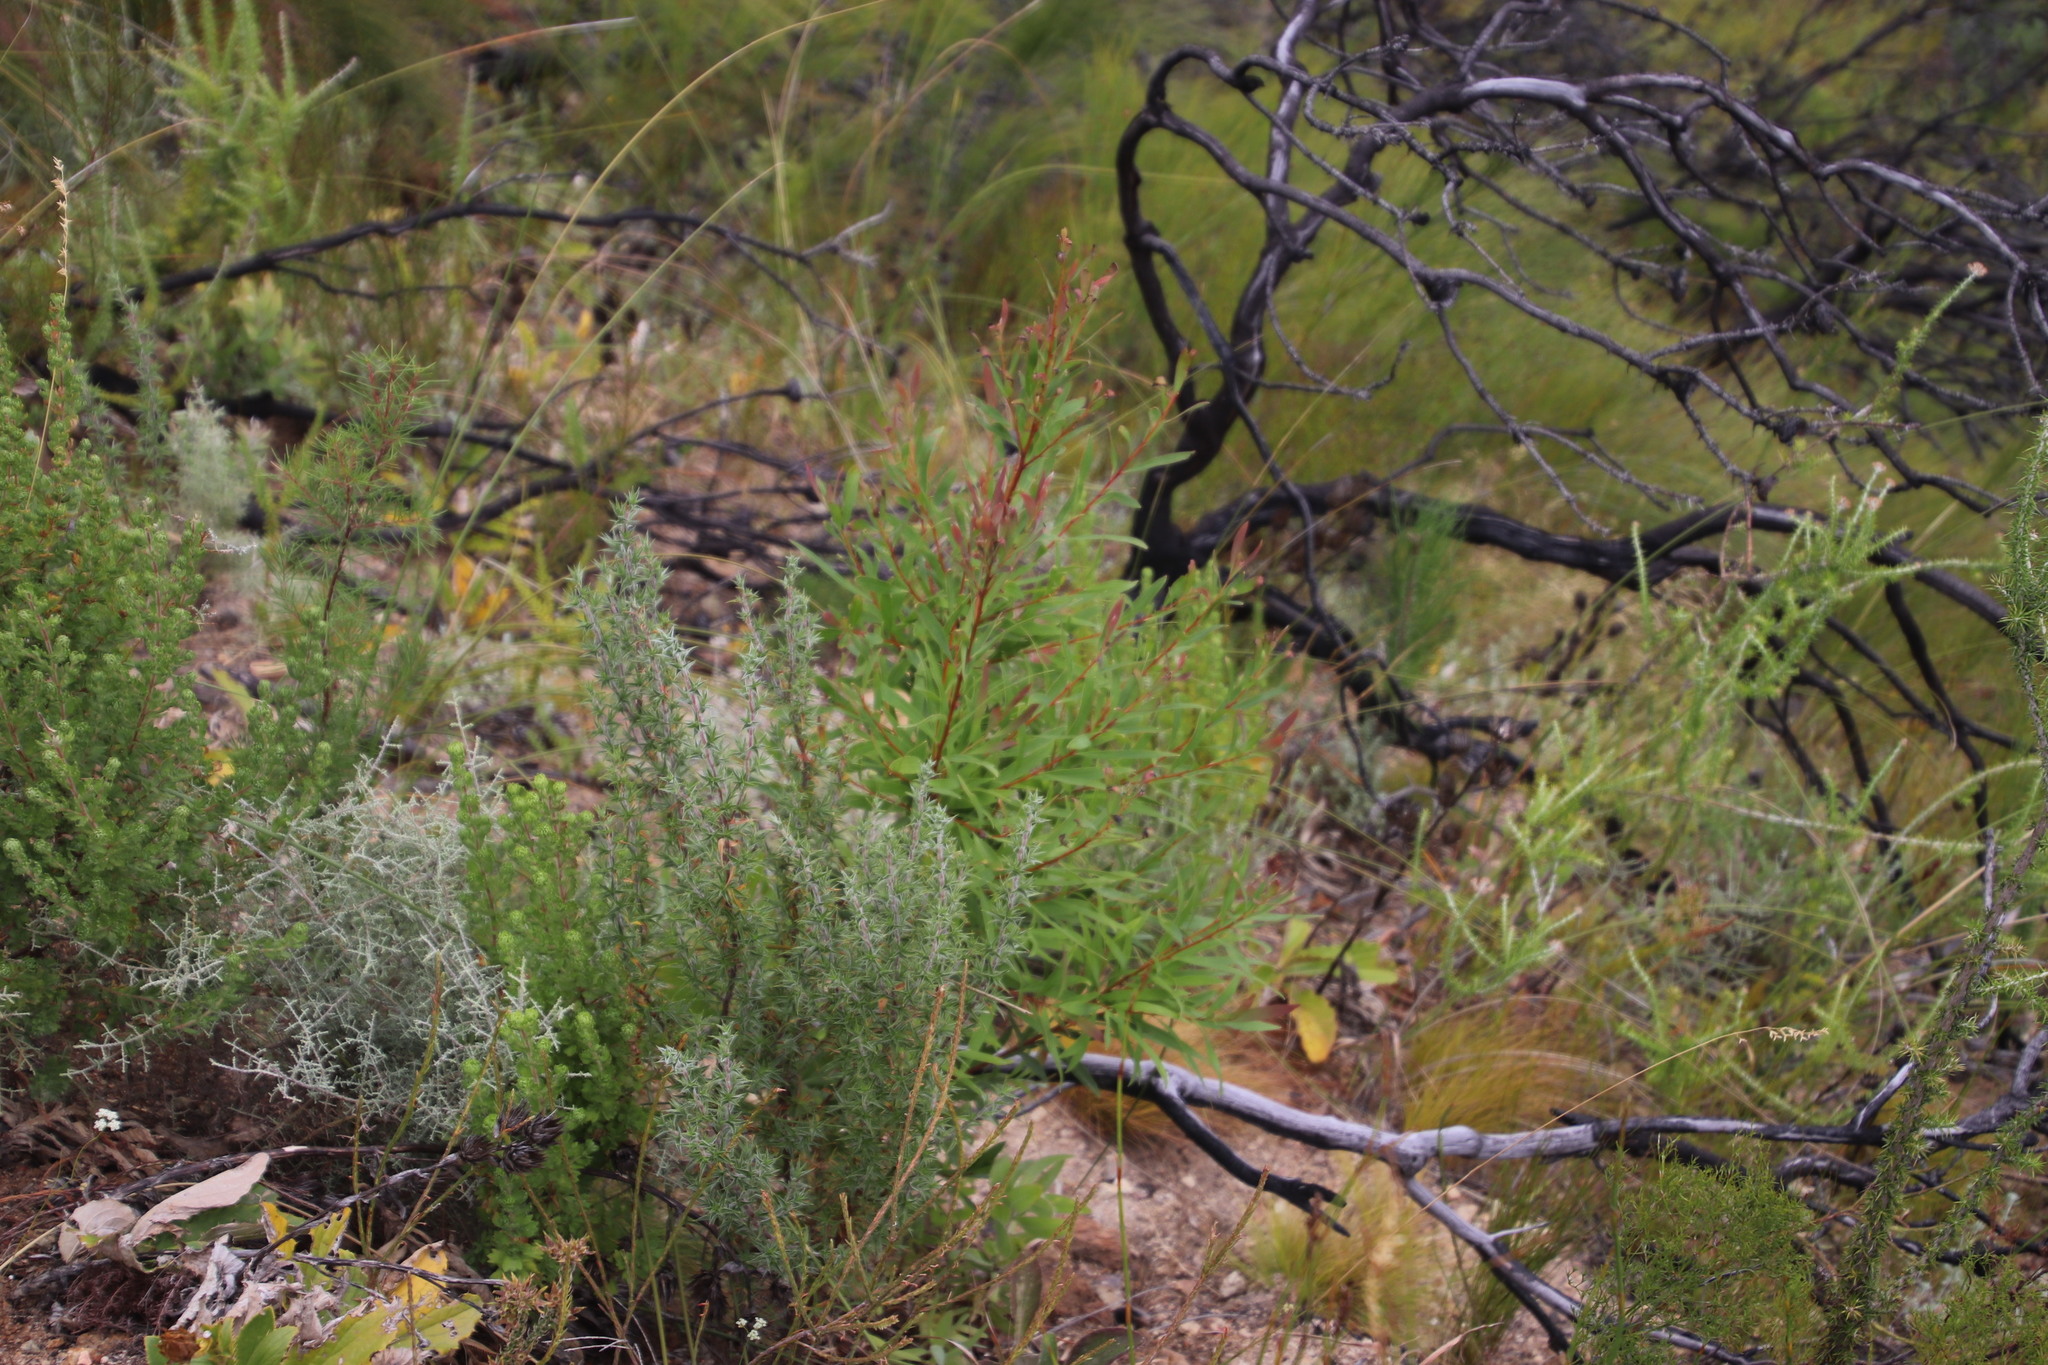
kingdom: Plantae
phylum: Tracheophyta
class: Magnoliopsida
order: Proteales
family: Proteaceae
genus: Hakea
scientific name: Hakea salicifolia
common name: Willow hakea
